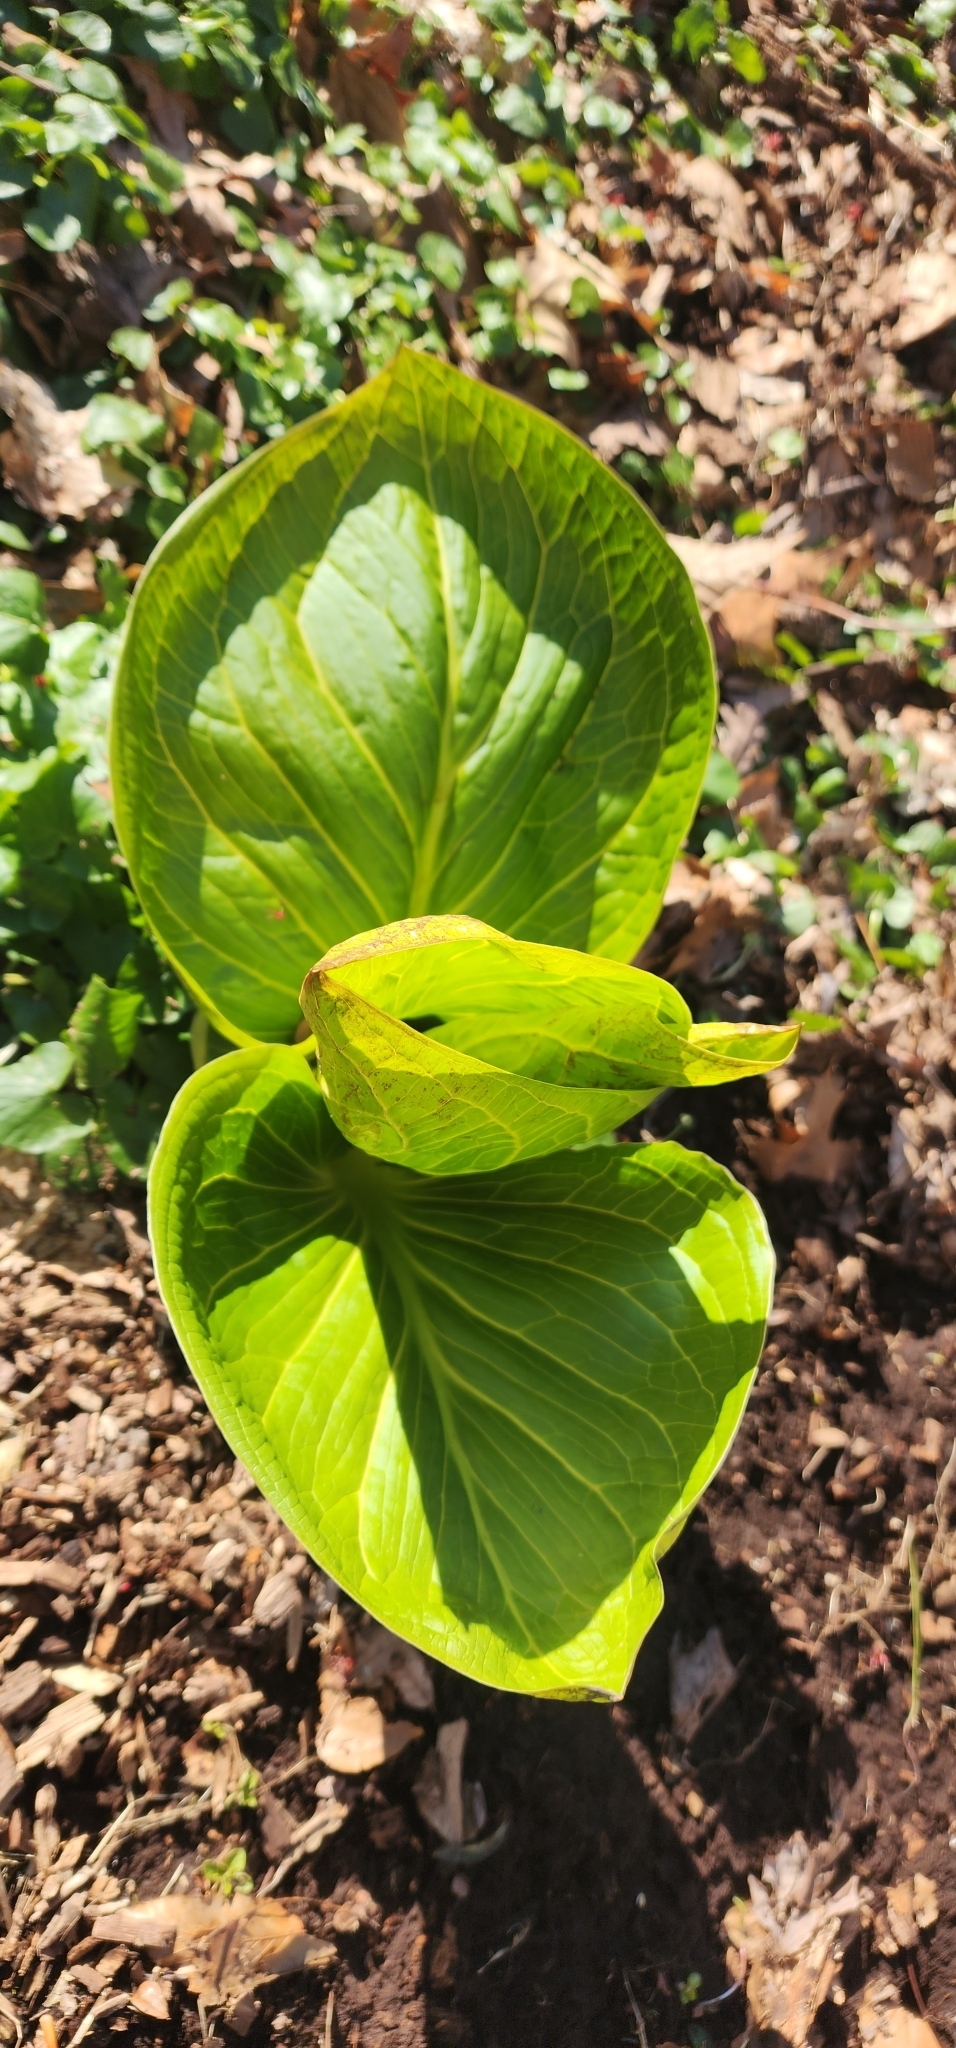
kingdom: Plantae
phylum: Tracheophyta
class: Liliopsida
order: Alismatales
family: Araceae
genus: Symplocarpus
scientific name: Symplocarpus foetidus
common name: Eastern skunk cabbage
